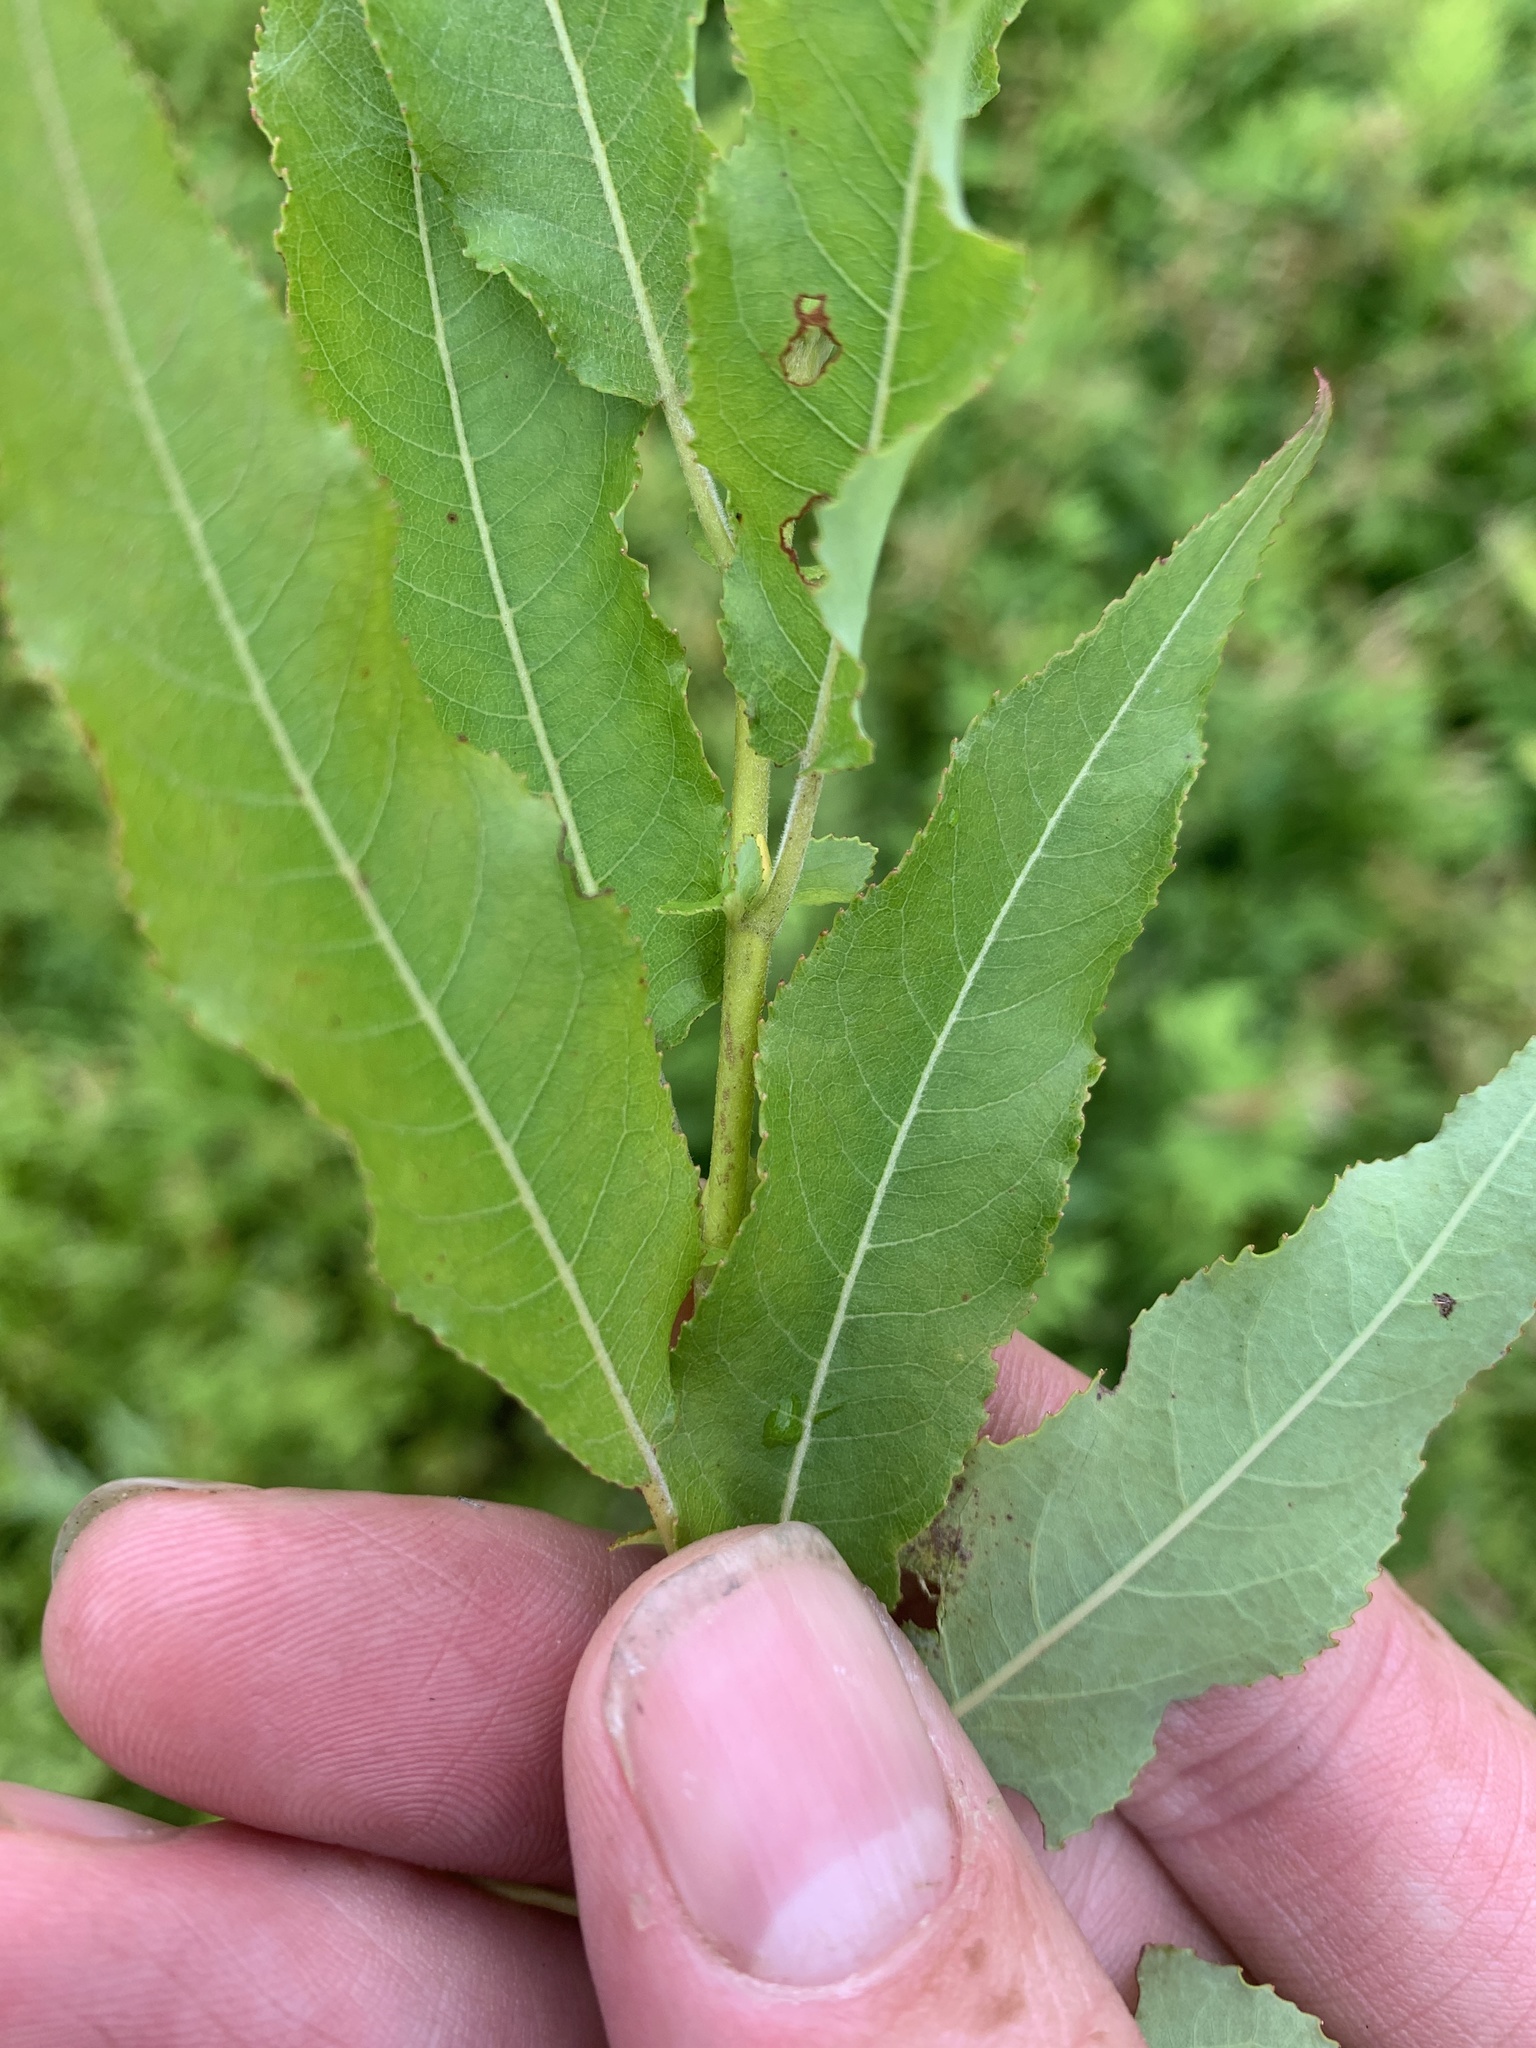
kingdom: Plantae
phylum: Tracheophyta
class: Magnoliopsida
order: Malpighiales
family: Salicaceae
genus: Salix
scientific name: Salix eriocephala
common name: Heart-leaved willow
